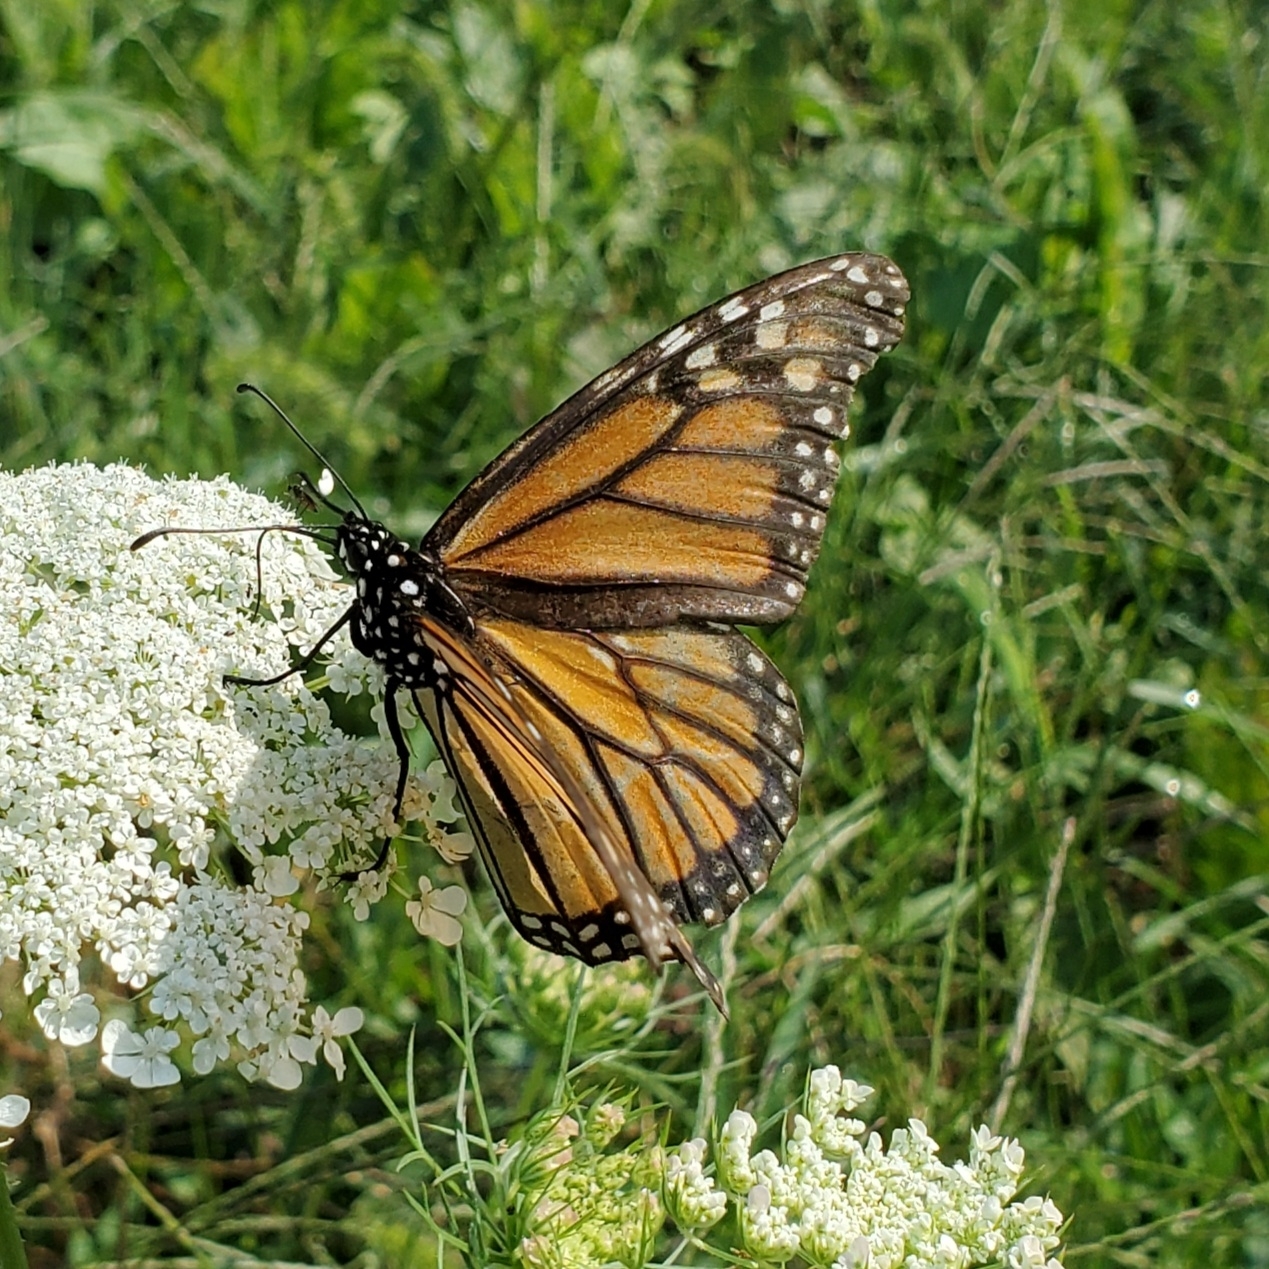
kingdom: Animalia
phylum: Arthropoda
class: Insecta
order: Lepidoptera
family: Nymphalidae
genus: Danaus
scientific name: Danaus plexippus
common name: Monarch
